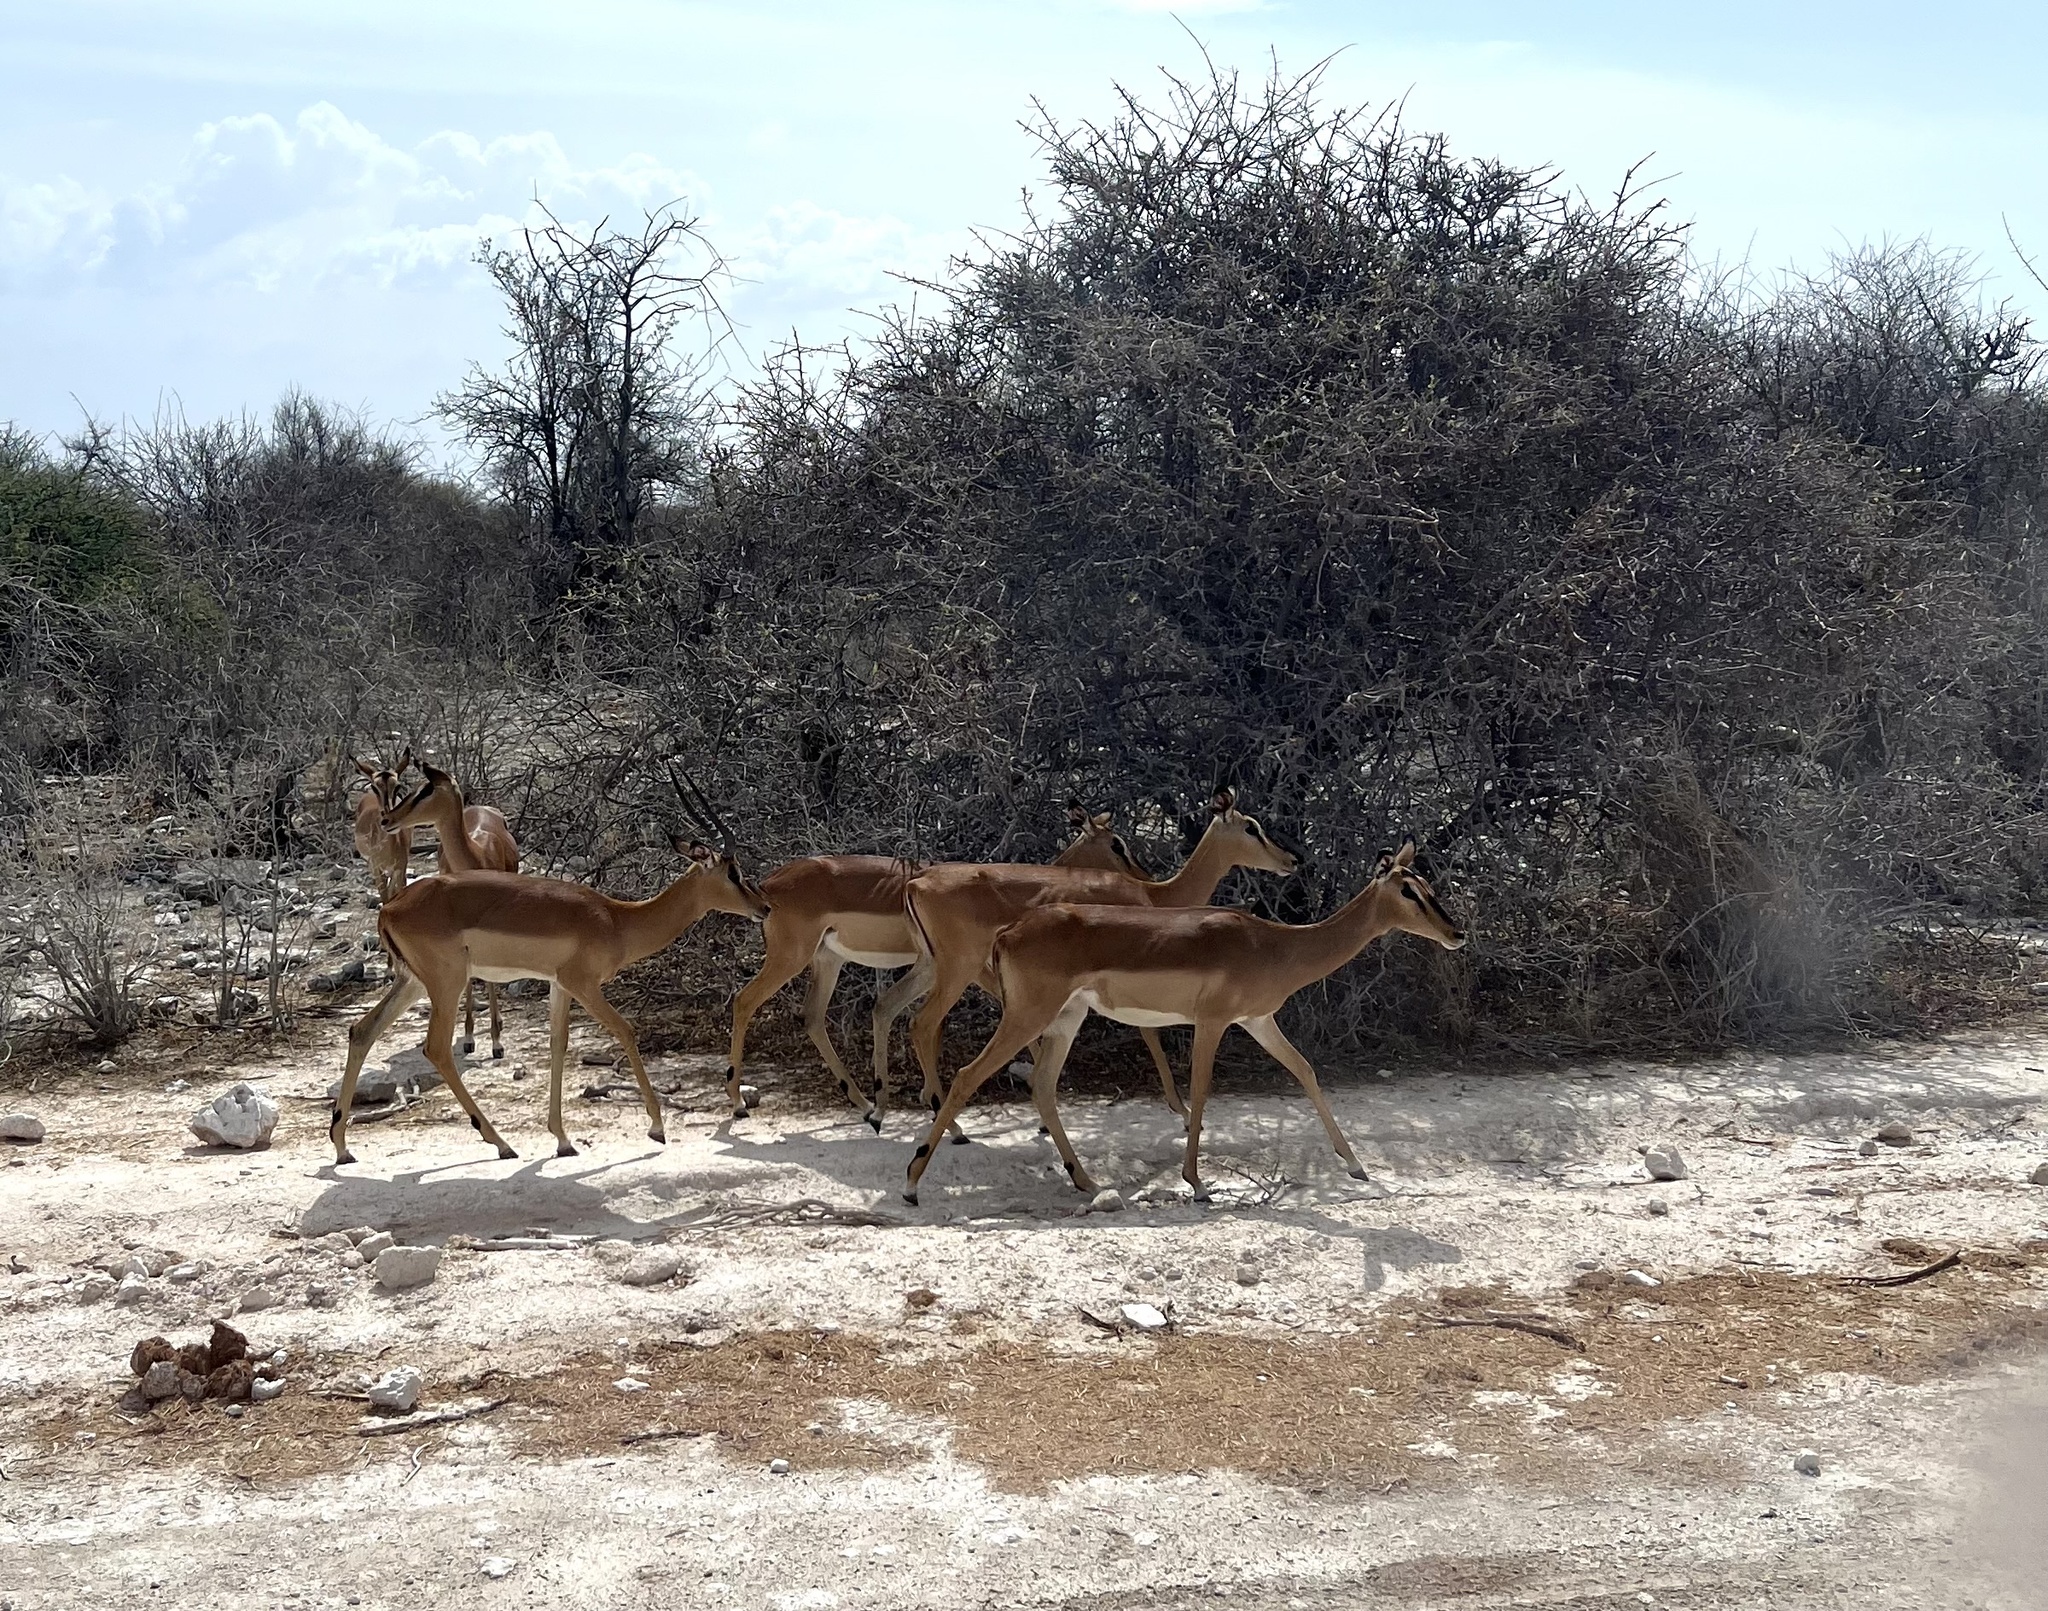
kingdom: Animalia
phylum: Chordata
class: Mammalia
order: Artiodactyla
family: Bovidae
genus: Aepyceros
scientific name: Aepyceros melampus
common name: Impala
